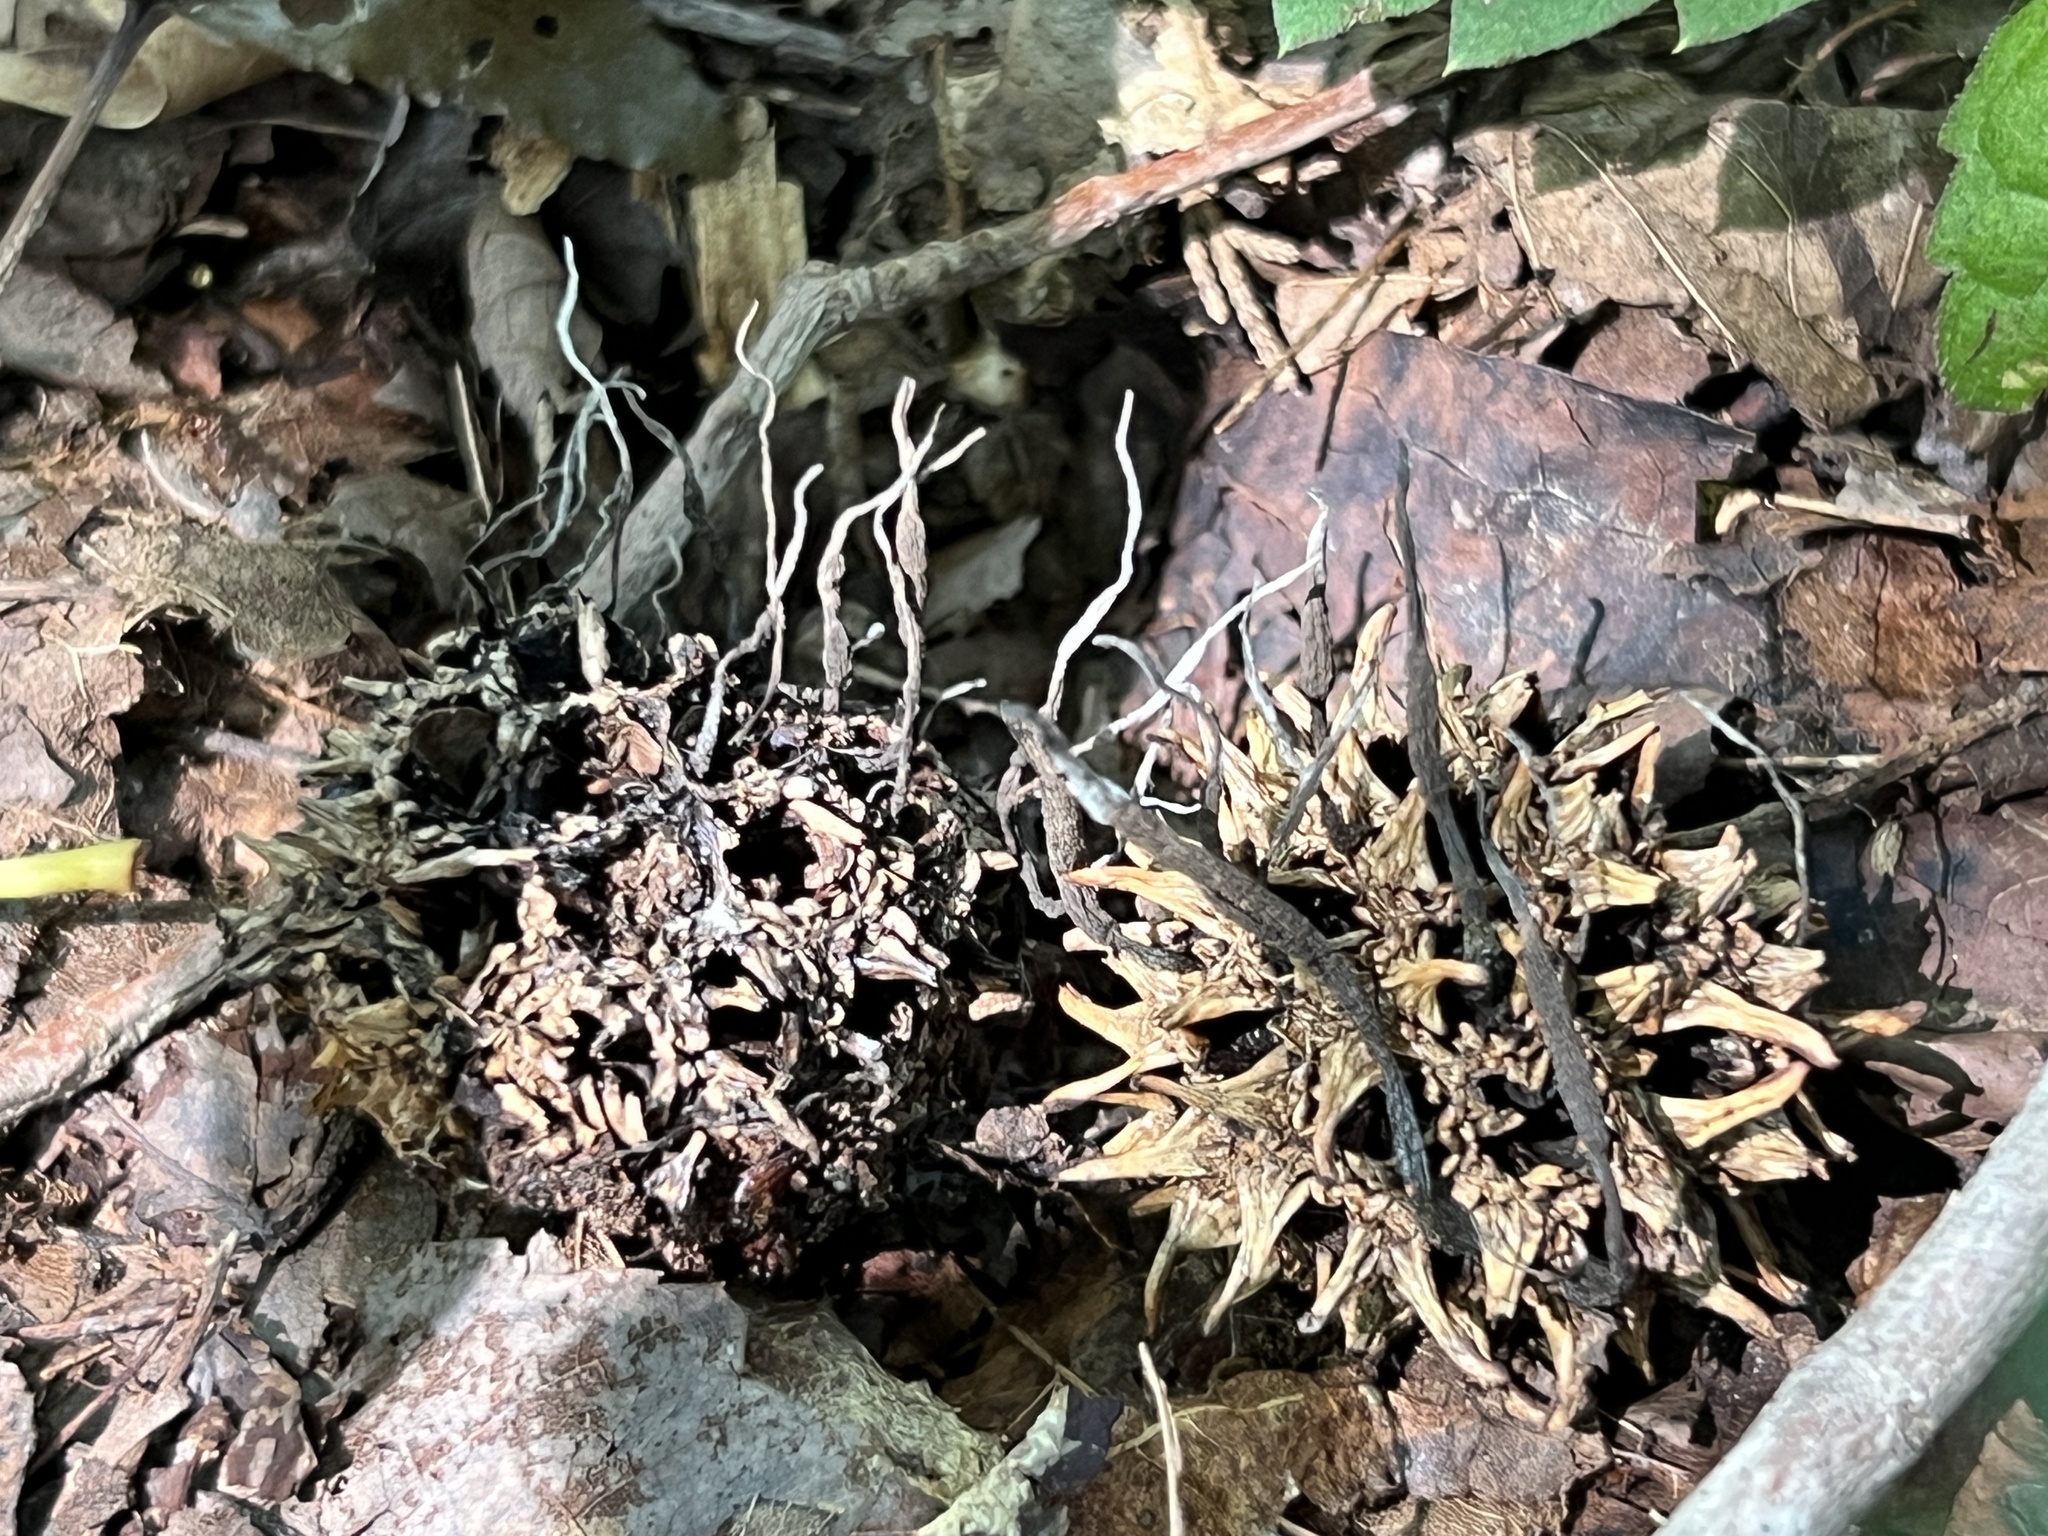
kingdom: Fungi
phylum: Ascomycota
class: Sordariomycetes
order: Xylariales
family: Xylariaceae
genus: Xylaria
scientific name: Xylaria liquidambaris
